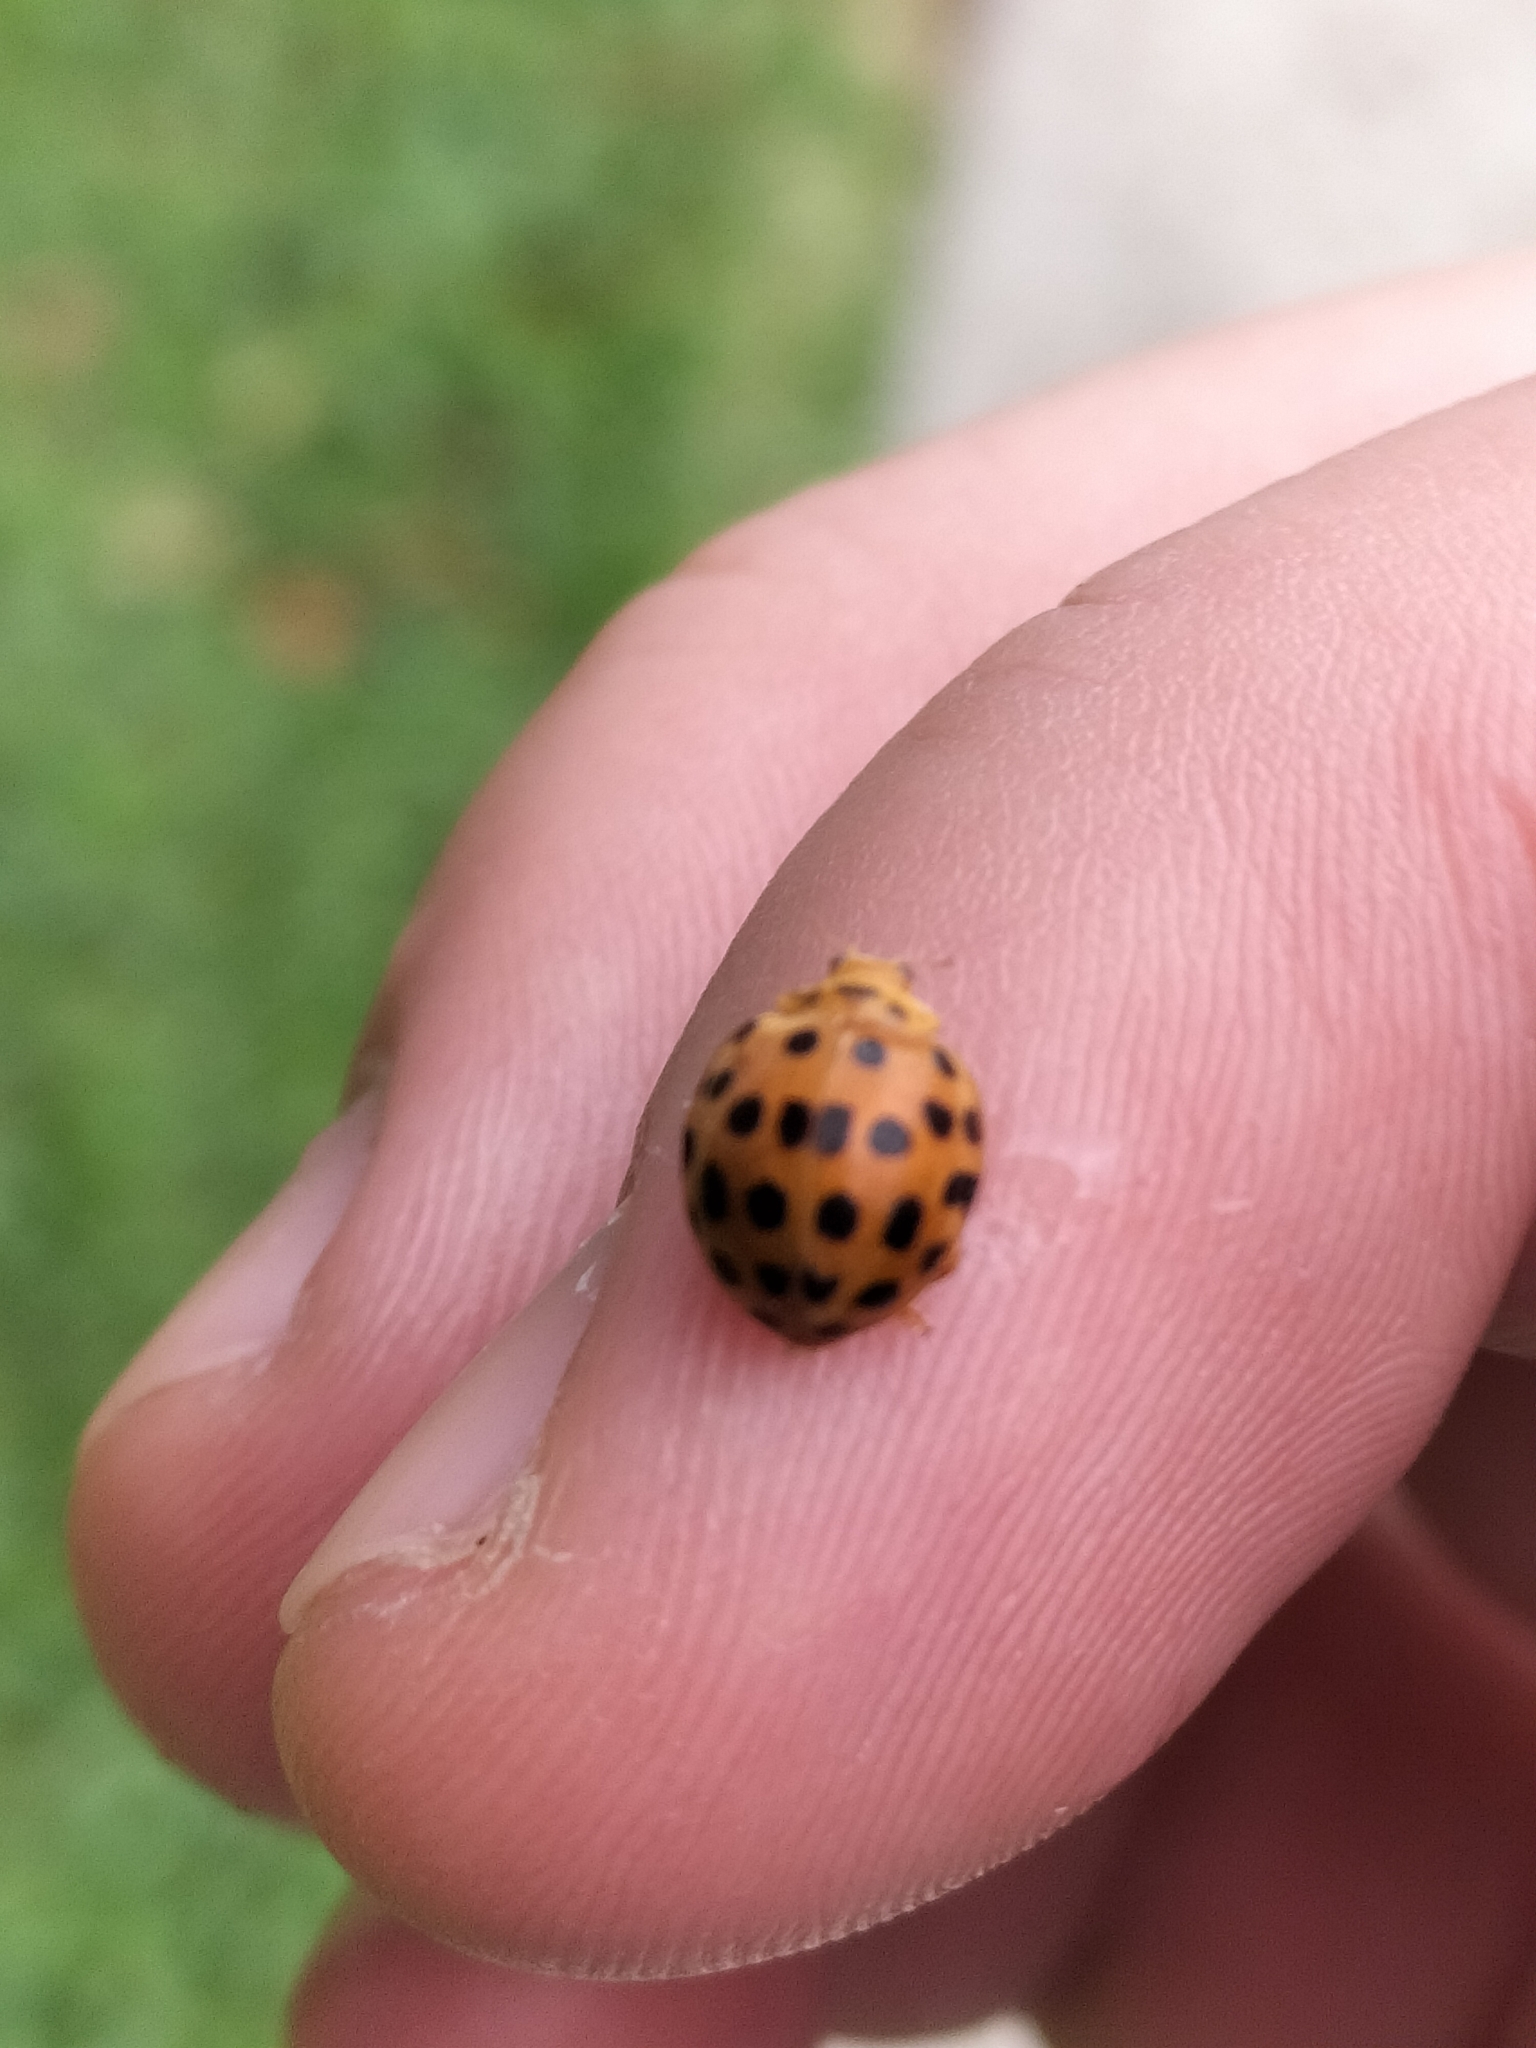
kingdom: Animalia
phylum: Arthropoda
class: Insecta
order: Coleoptera
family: Coccinellidae
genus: Henosepilachna
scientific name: Henosepilachna vigintioctopunctata
